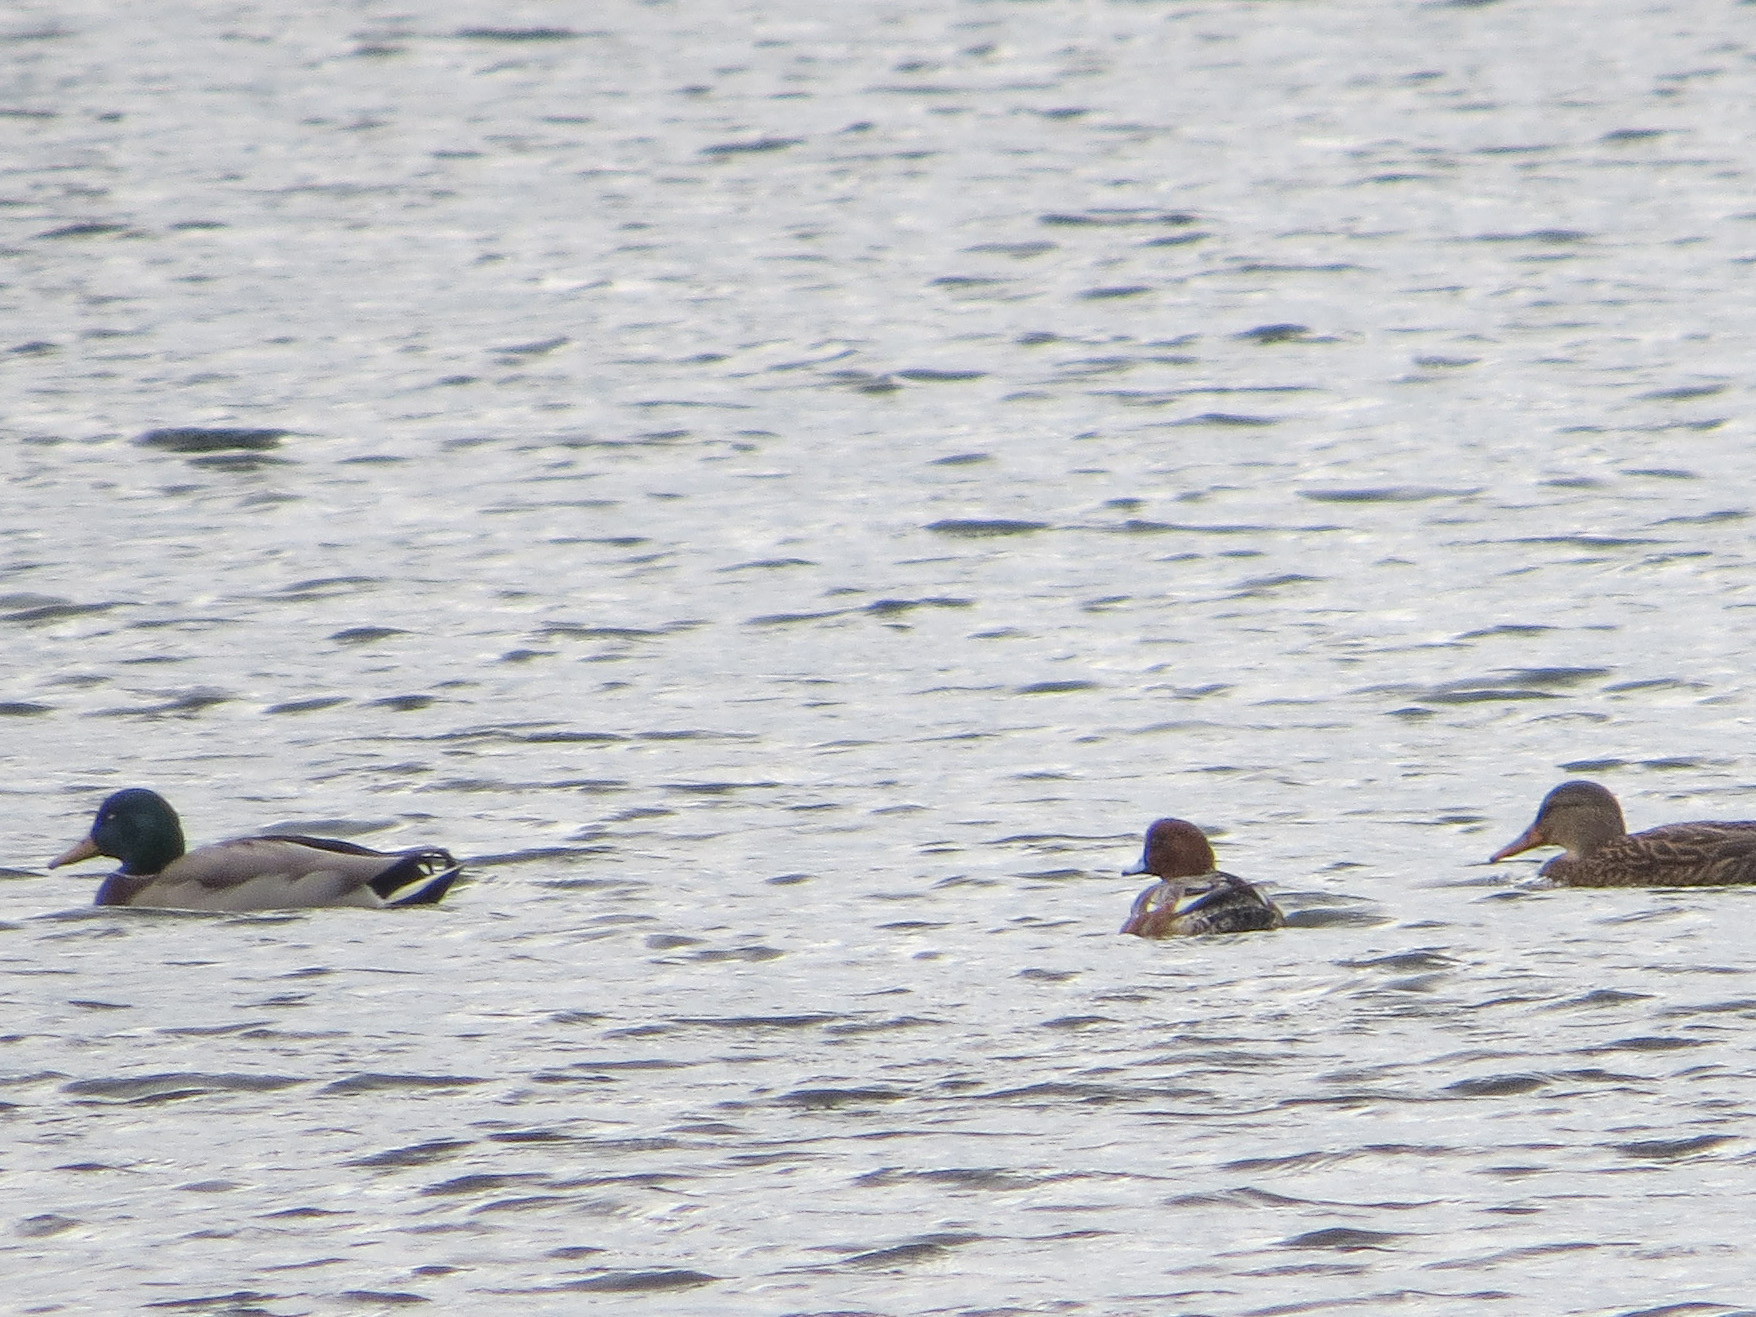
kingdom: Animalia
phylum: Chordata
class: Aves
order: Anseriformes
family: Anatidae
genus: Mareca
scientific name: Mareca penelope
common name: Eurasian wigeon
